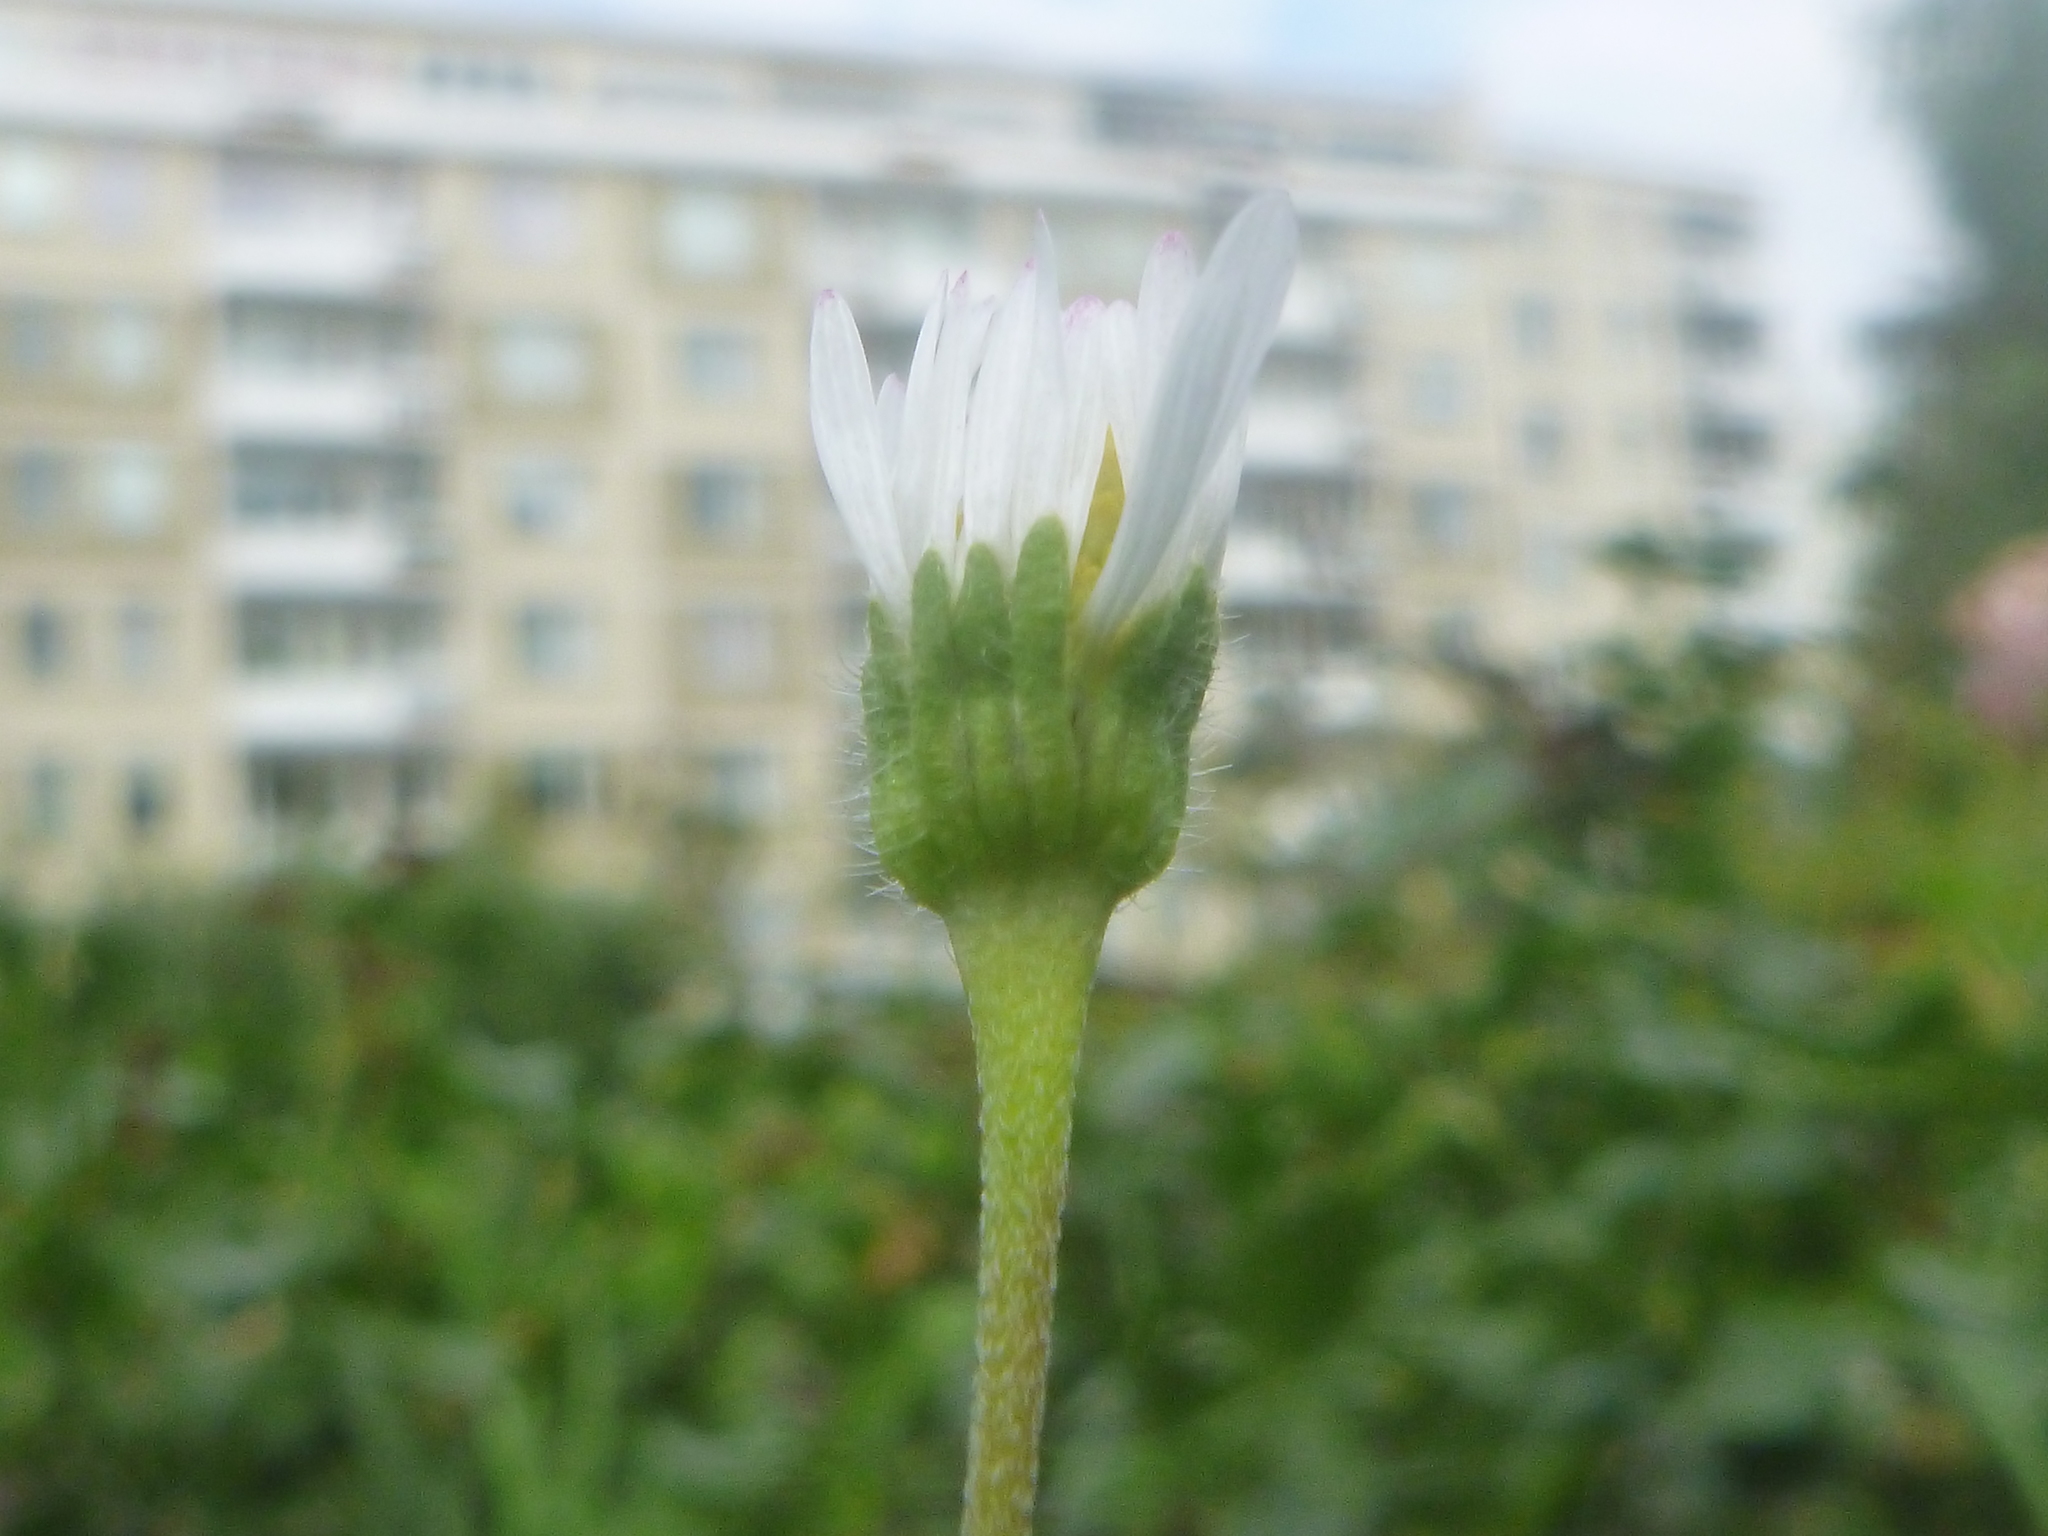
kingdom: Plantae
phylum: Tracheophyta
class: Magnoliopsida
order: Asterales
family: Asteraceae
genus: Bellis
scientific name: Bellis perennis
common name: Lawndaisy
